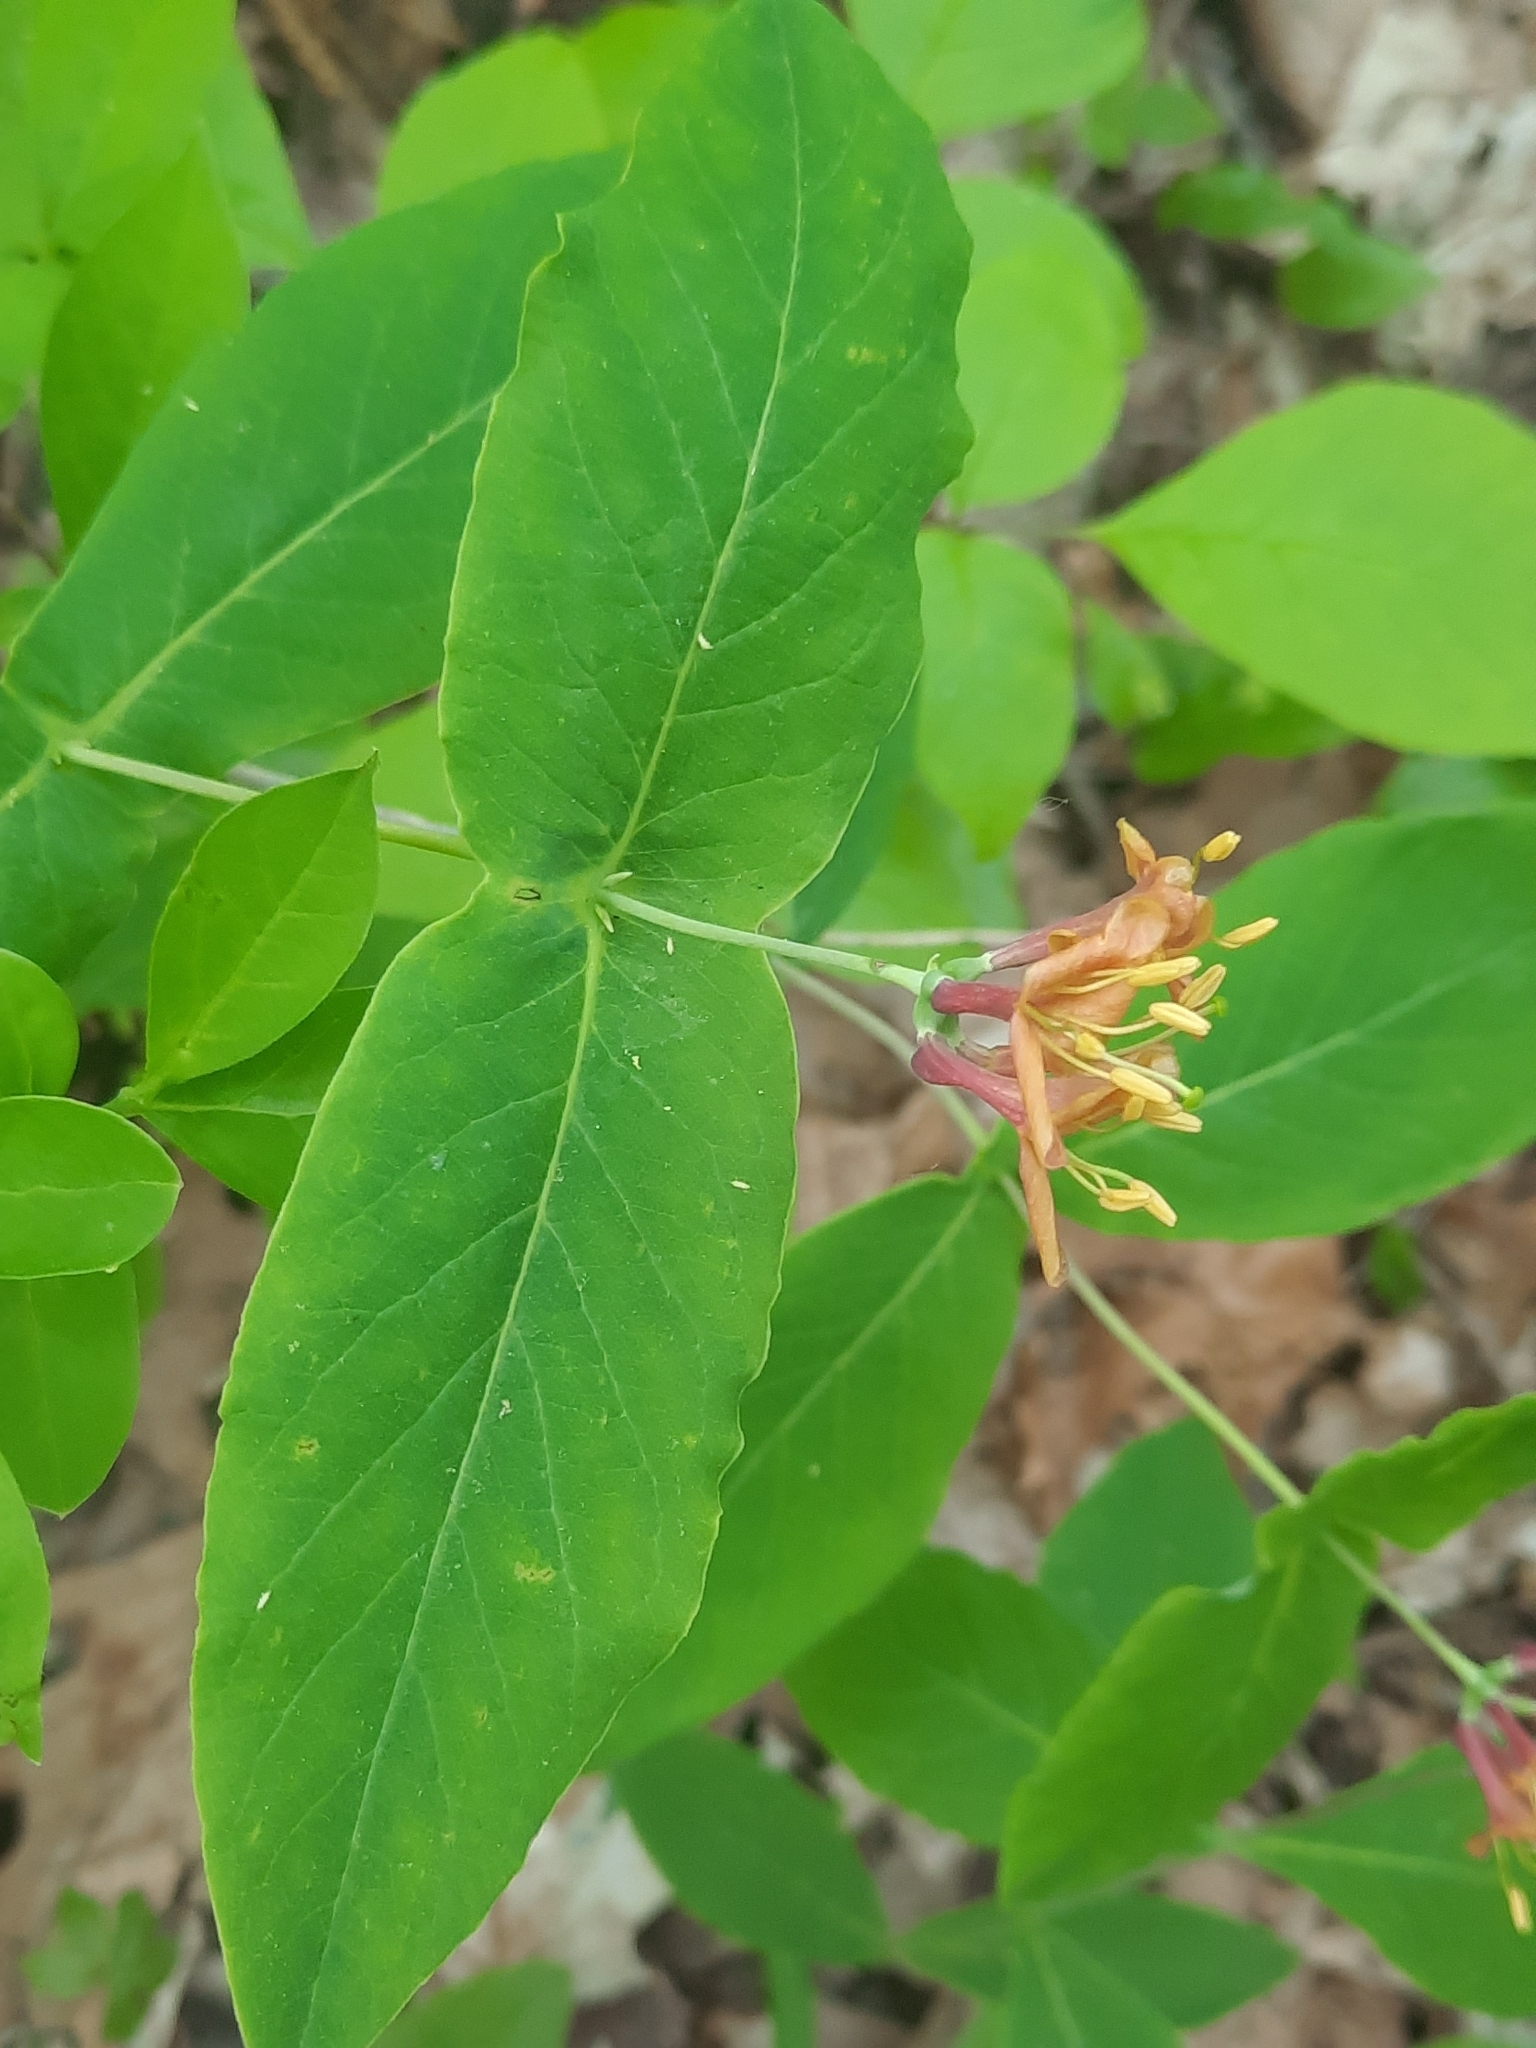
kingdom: Plantae
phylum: Tracheophyta
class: Magnoliopsida
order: Dipsacales
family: Caprifoliaceae
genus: Lonicera
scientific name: Lonicera dioica
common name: Limber honeysuckle
